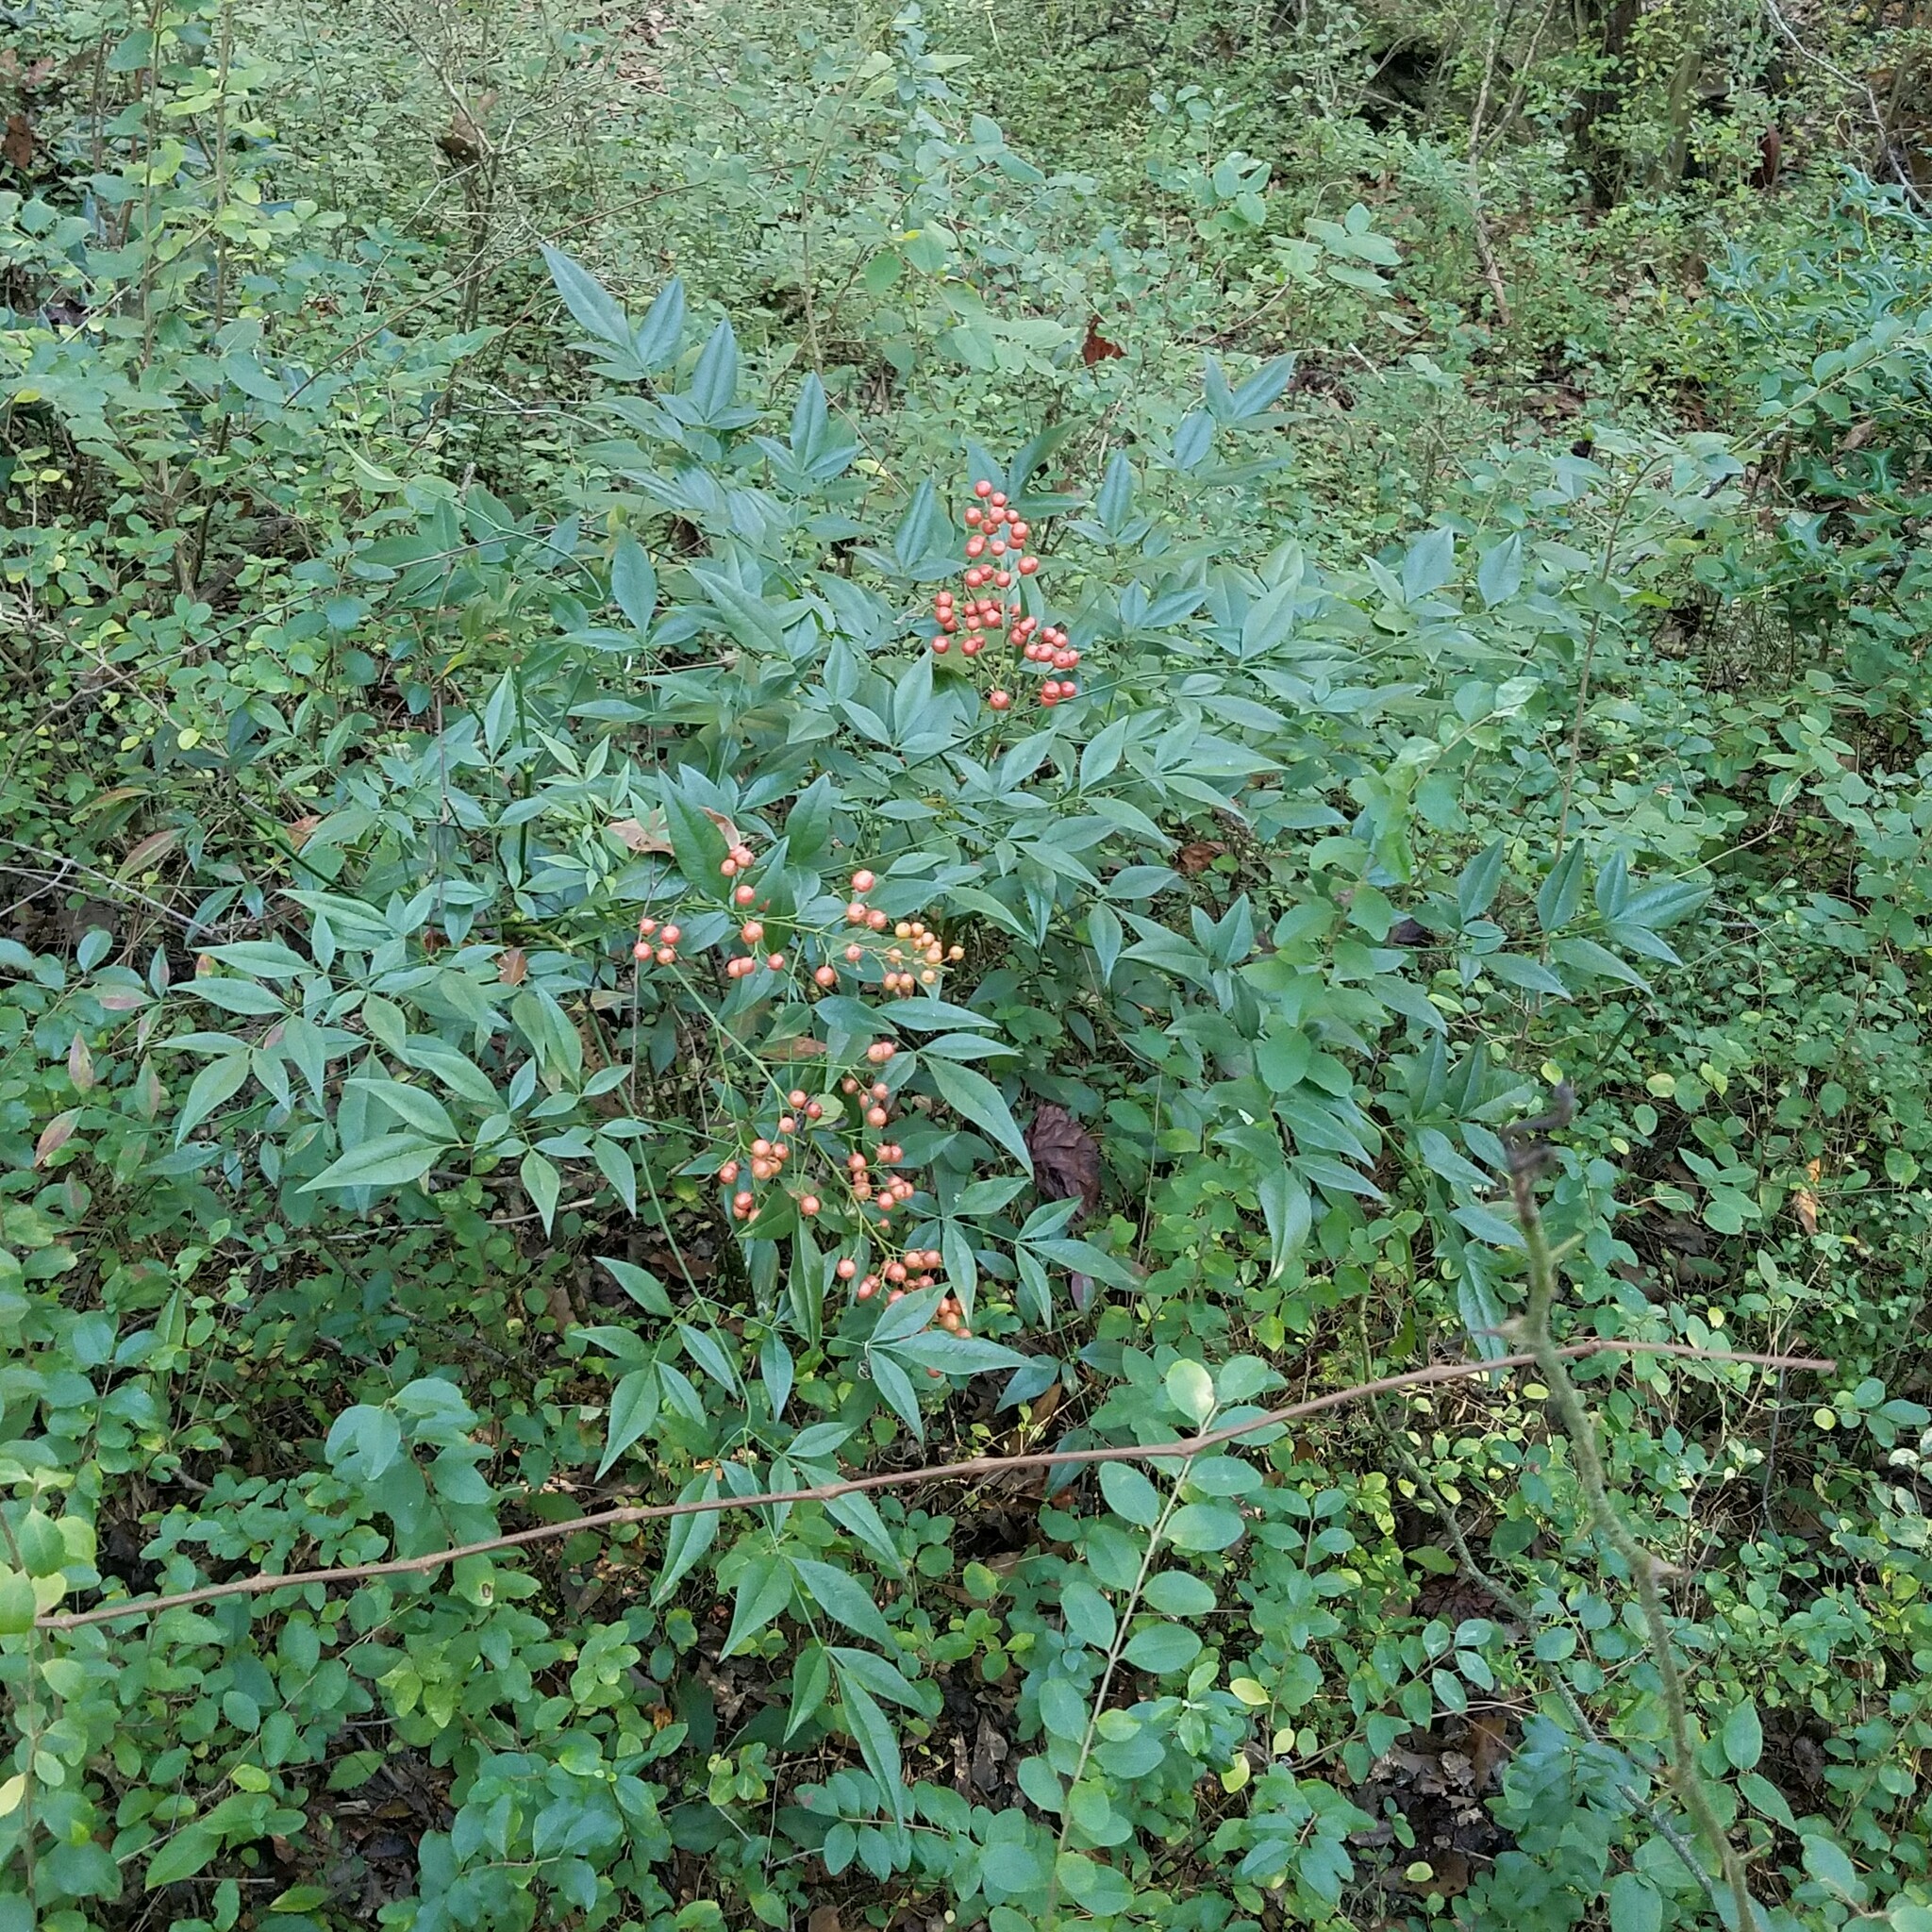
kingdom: Plantae
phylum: Tracheophyta
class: Magnoliopsida
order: Ranunculales
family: Berberidaceae
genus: Nandina
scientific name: Nandina domestica
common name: Sacred bamboo
